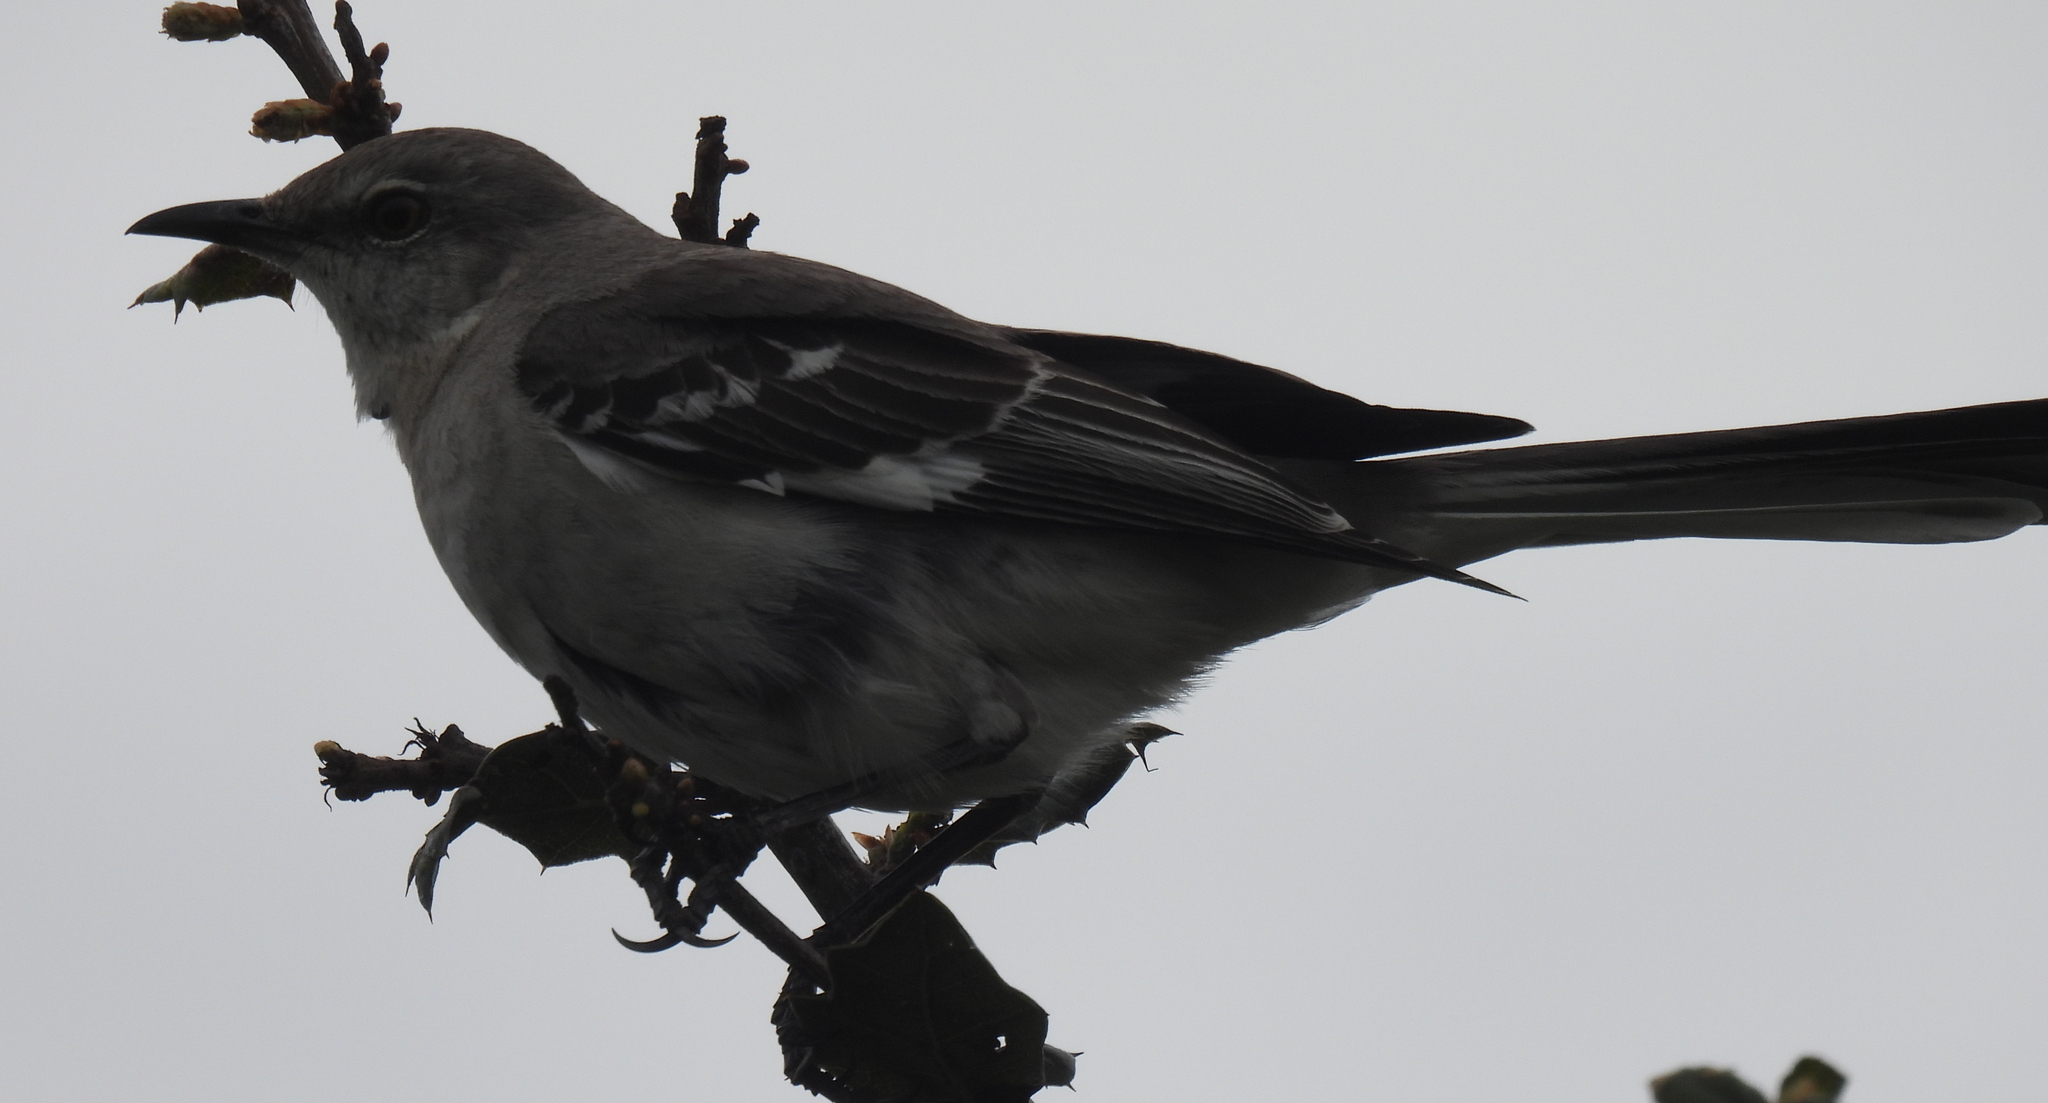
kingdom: Animalia
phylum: Chordata
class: Aves
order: Passeriformes
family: Mimidae
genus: Mimus
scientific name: Mimus polyglottos
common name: Northern mockingbird
